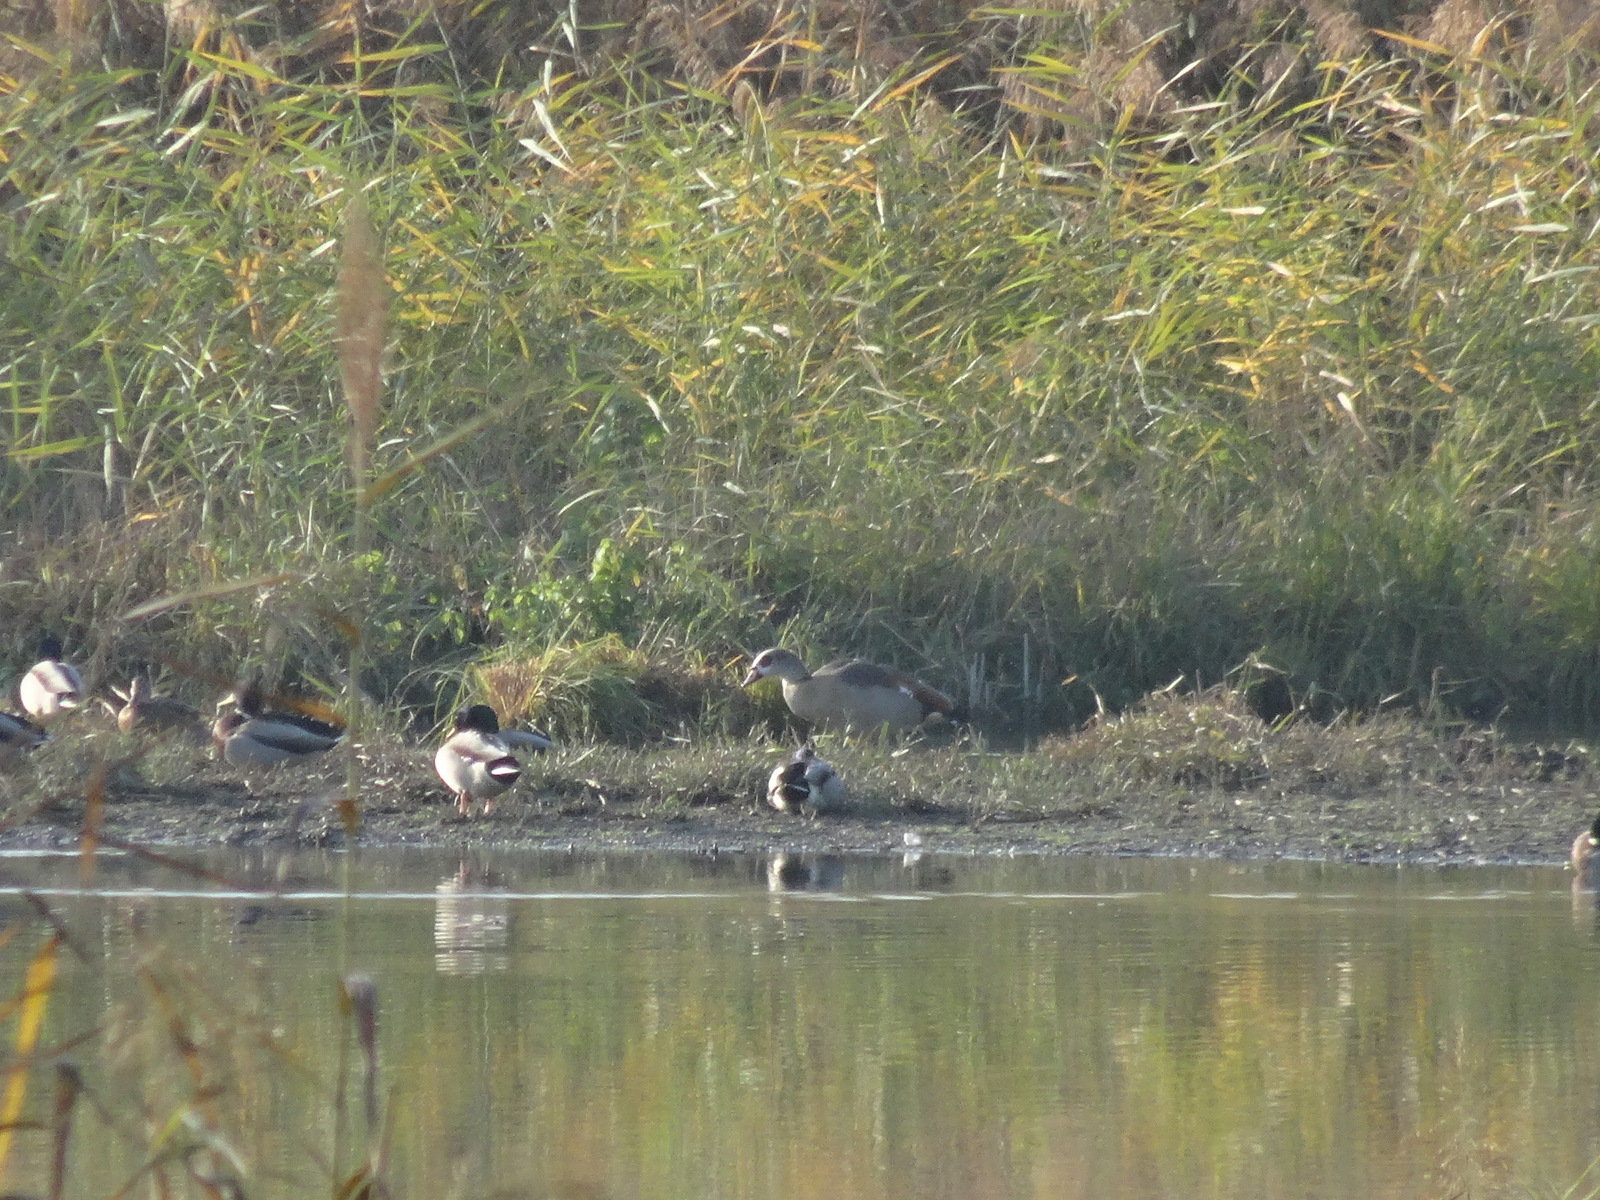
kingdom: Animalia
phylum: Chordata
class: Aves
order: Anseriformes
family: Anatidae
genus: Alopochen
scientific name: Alopochen aegyptiaca
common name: Egyptian goose
